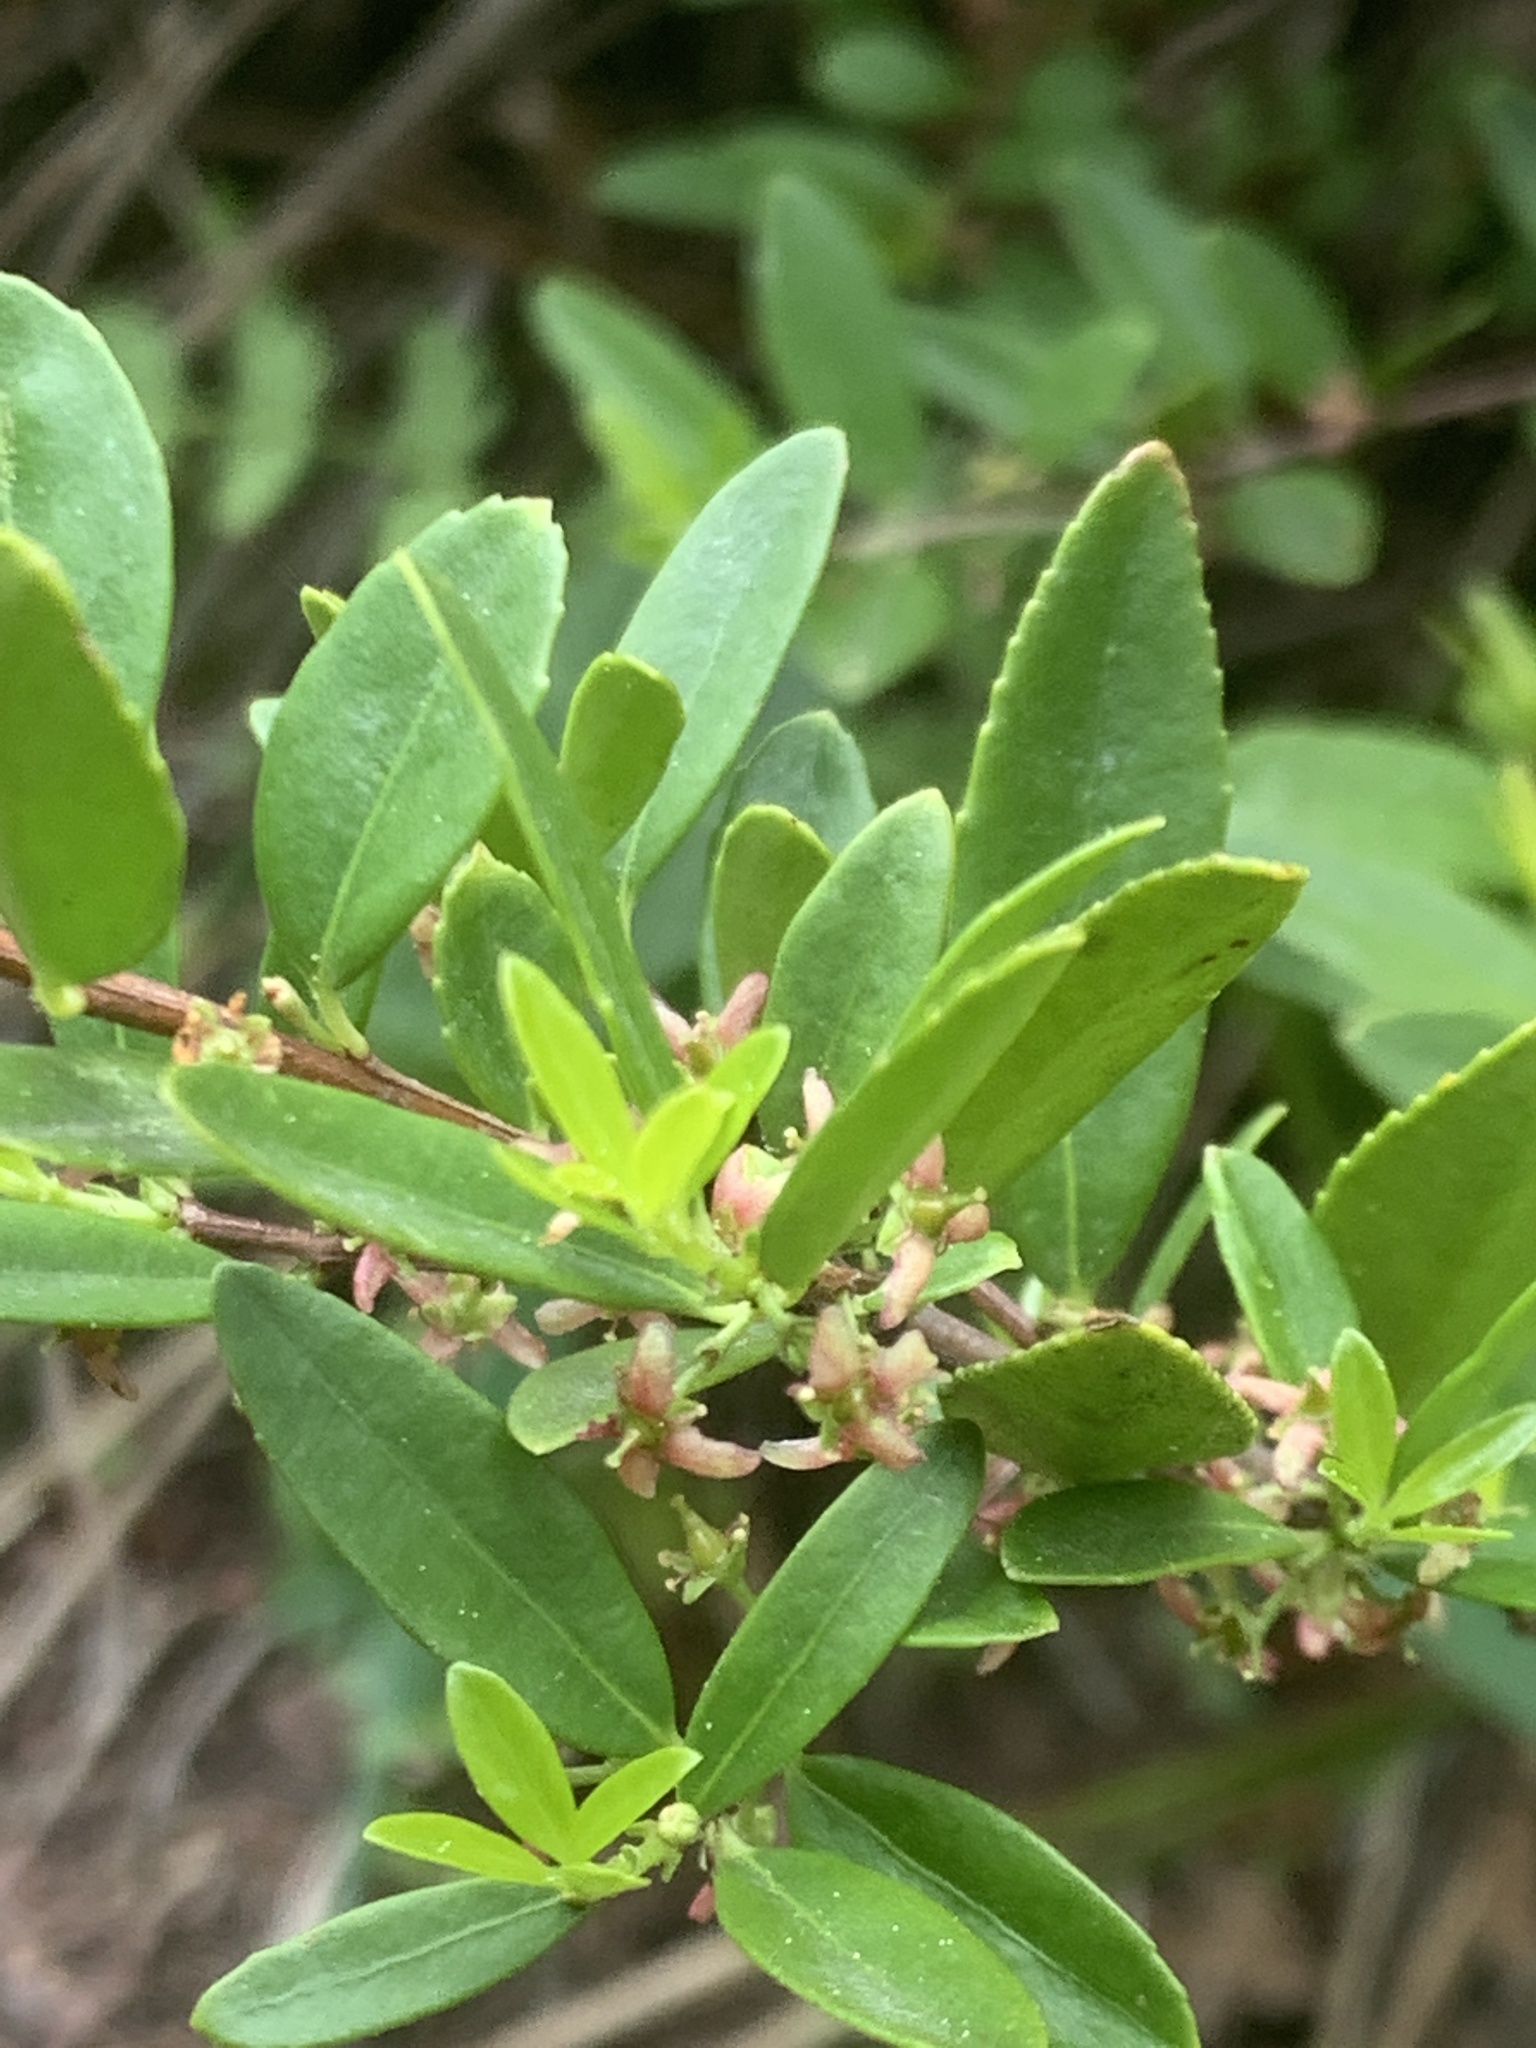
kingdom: Plantae
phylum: Tracheophyta
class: Magnoliopsida
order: Celastrales
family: Celastraceae
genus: Paxistima
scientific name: Paxistima myrsinites
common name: Mountain-lover
